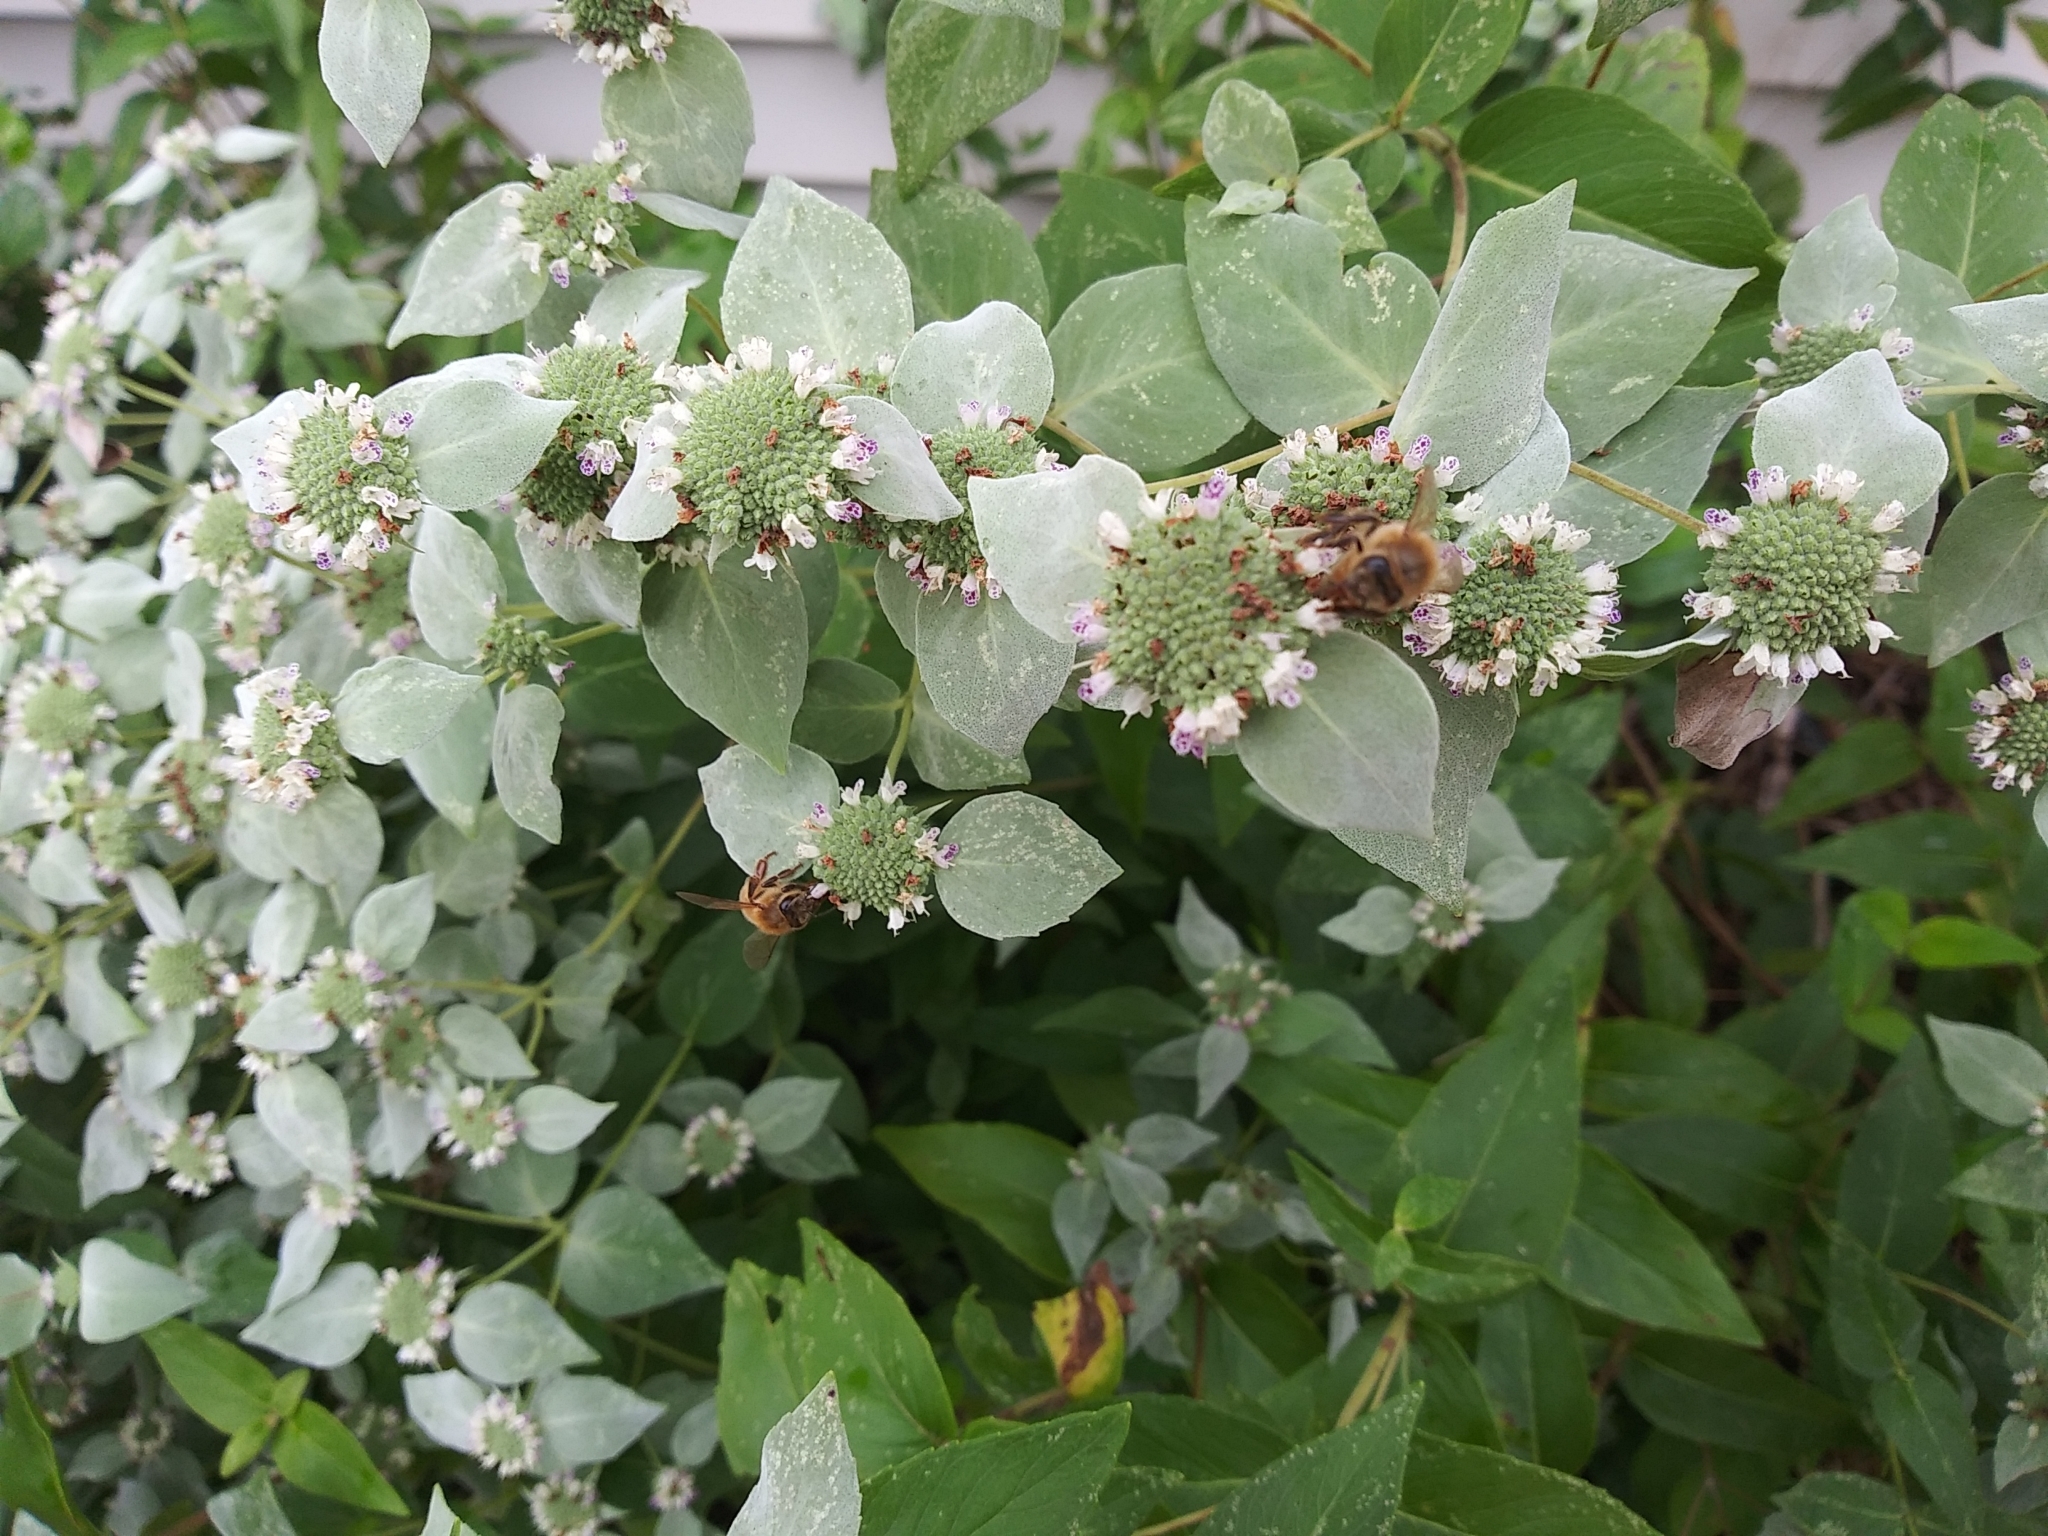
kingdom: Animalia
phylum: Arthropoda
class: Insecta
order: Hymenoptera
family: Apidae
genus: Apis
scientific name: Apis mellifera
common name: Honey bee
